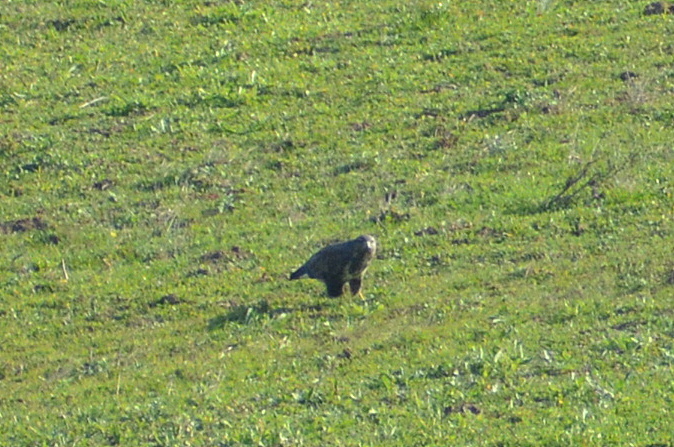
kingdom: Animalia
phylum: Chordata
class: Aves
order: Accipitriformes
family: Accipitridae
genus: Buteo
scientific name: Buteo buteo
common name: Common buzzard
